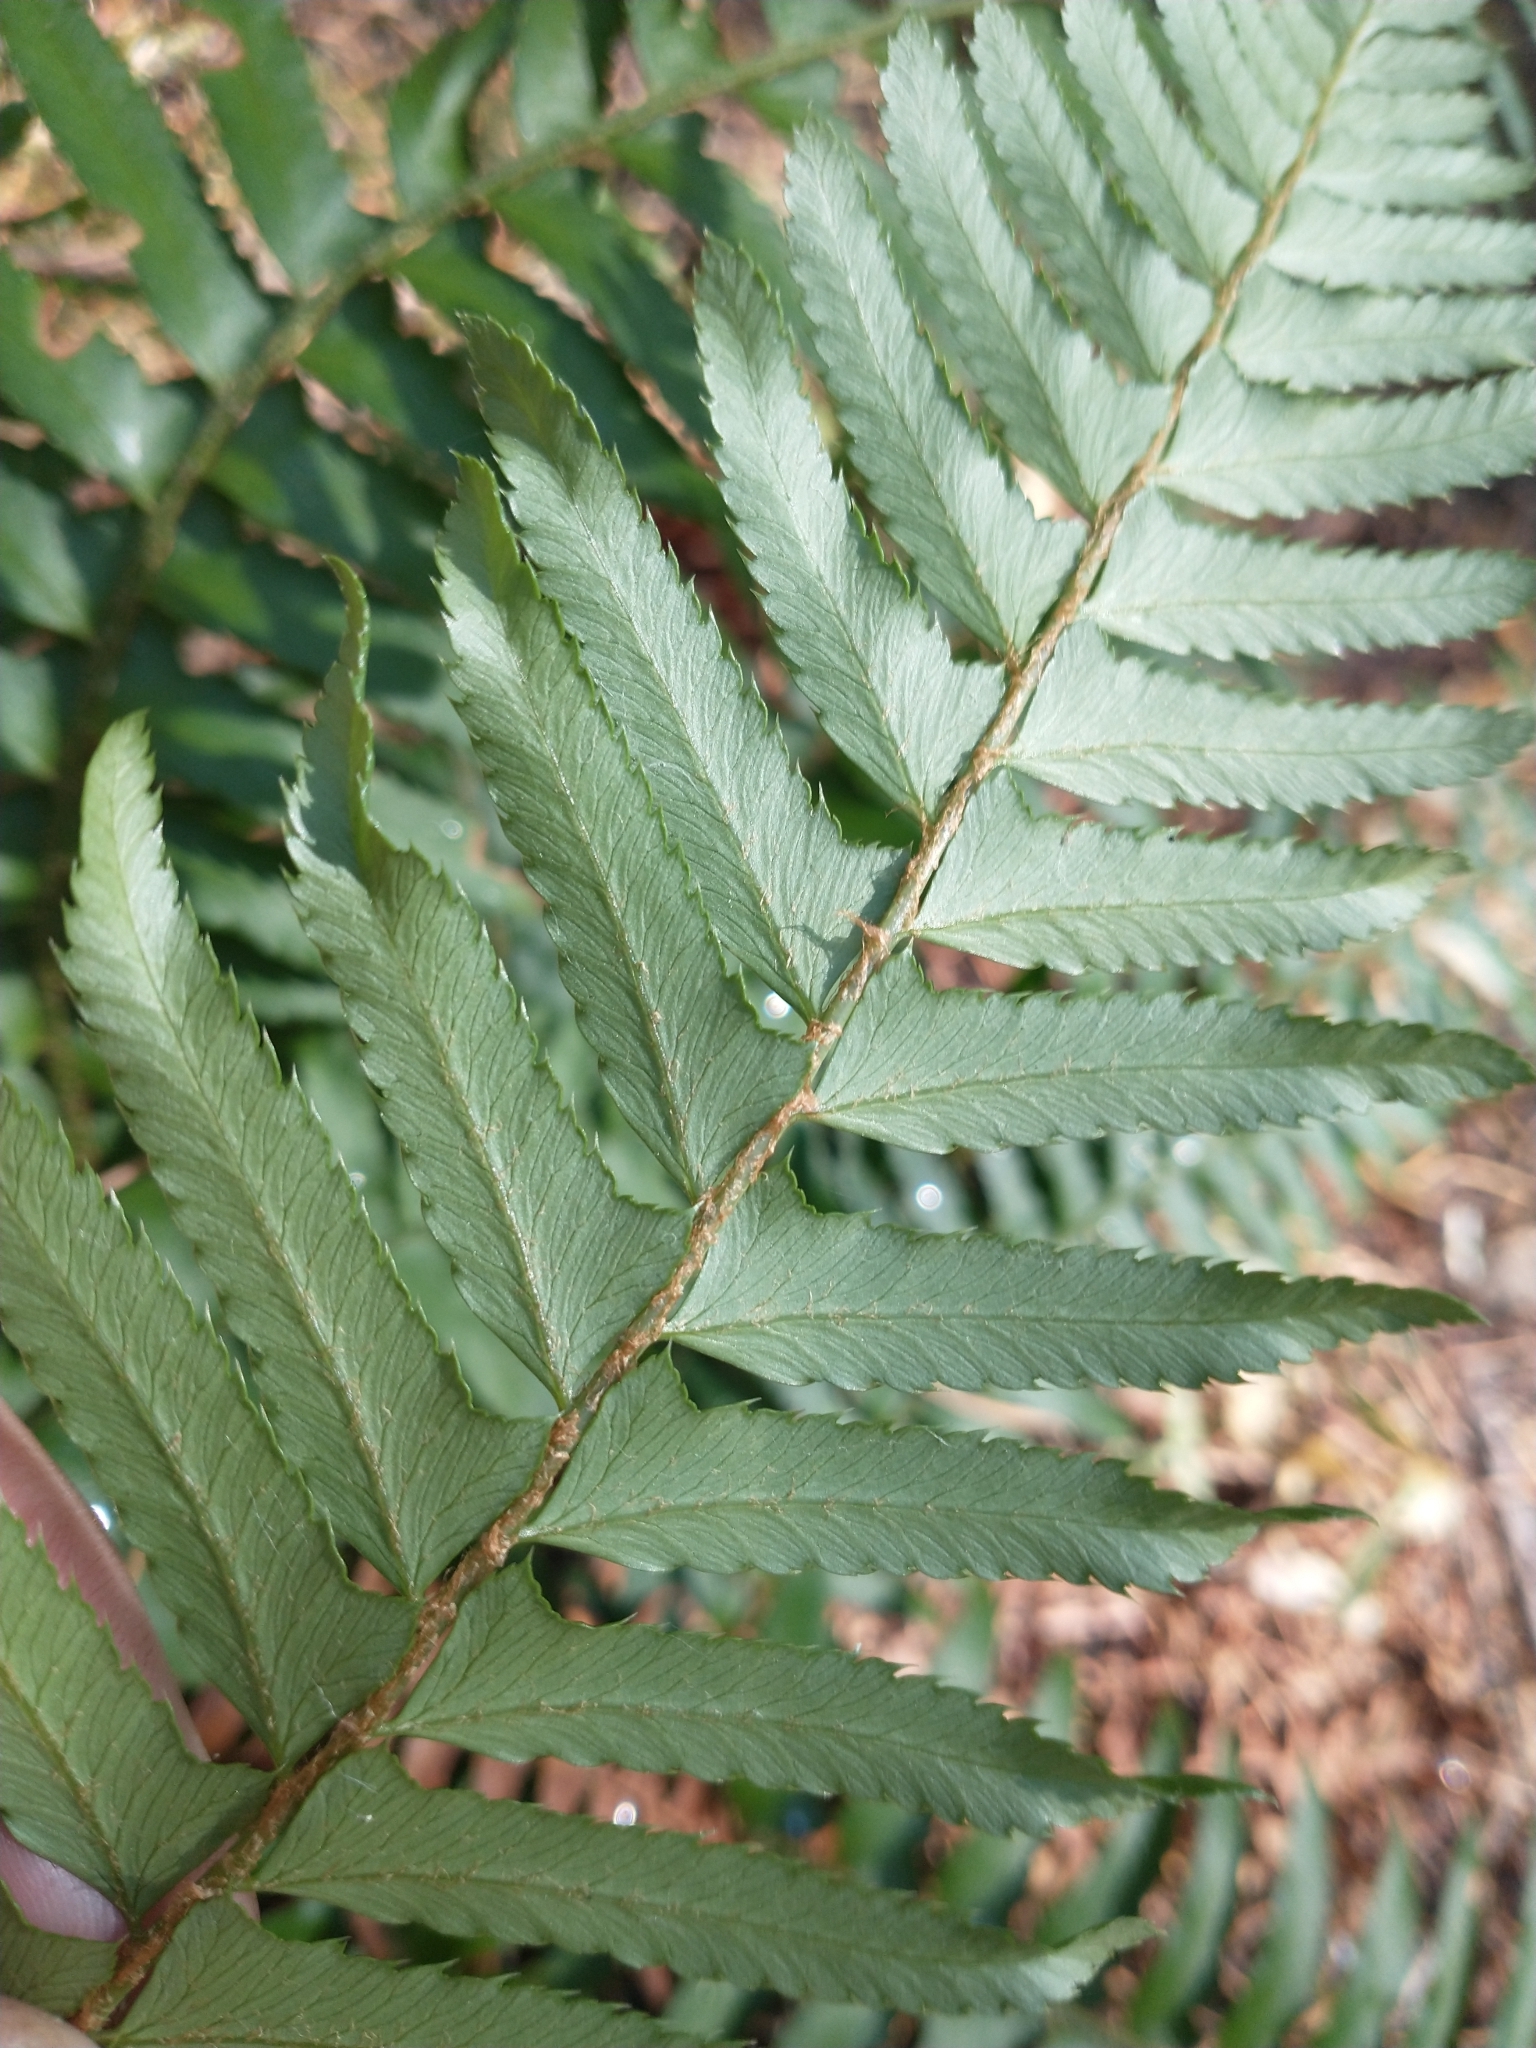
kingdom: Plantae
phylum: Tracheophyta
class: Polypodiopsida
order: Polypodiales
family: Dryopteridaceae
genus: Polystichum
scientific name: Polystichum munitum
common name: Western sword-fern
